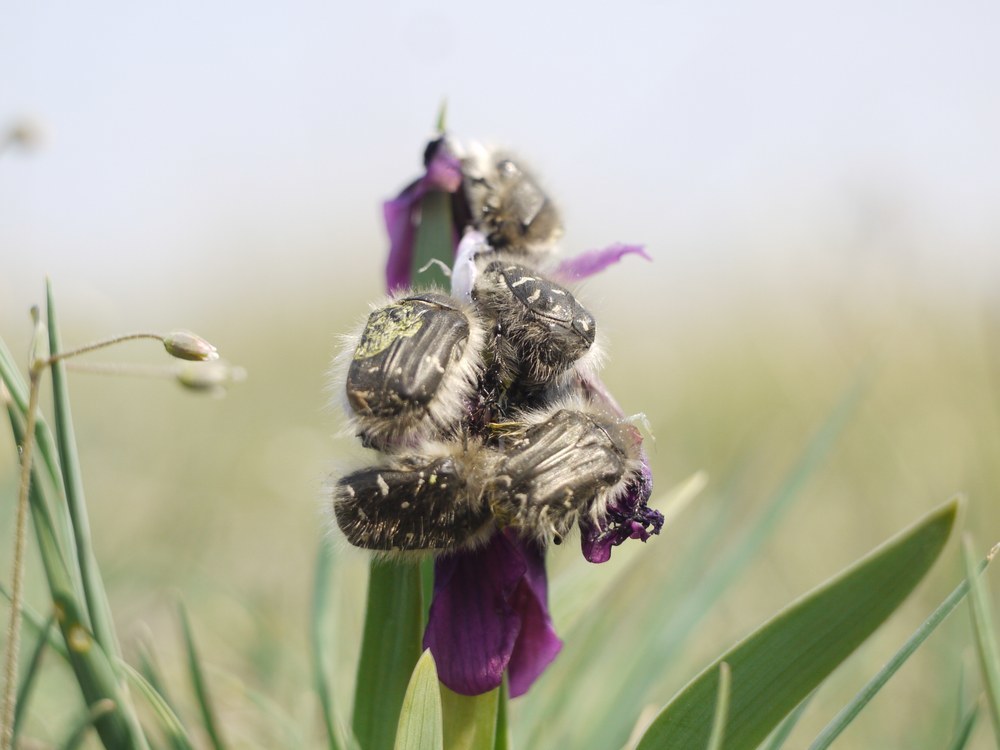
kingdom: Animalia
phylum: Arthropoda
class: Insecta
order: Coleoptera
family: Scarabaeidae
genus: Tropinota
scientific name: Tropinota hirta
